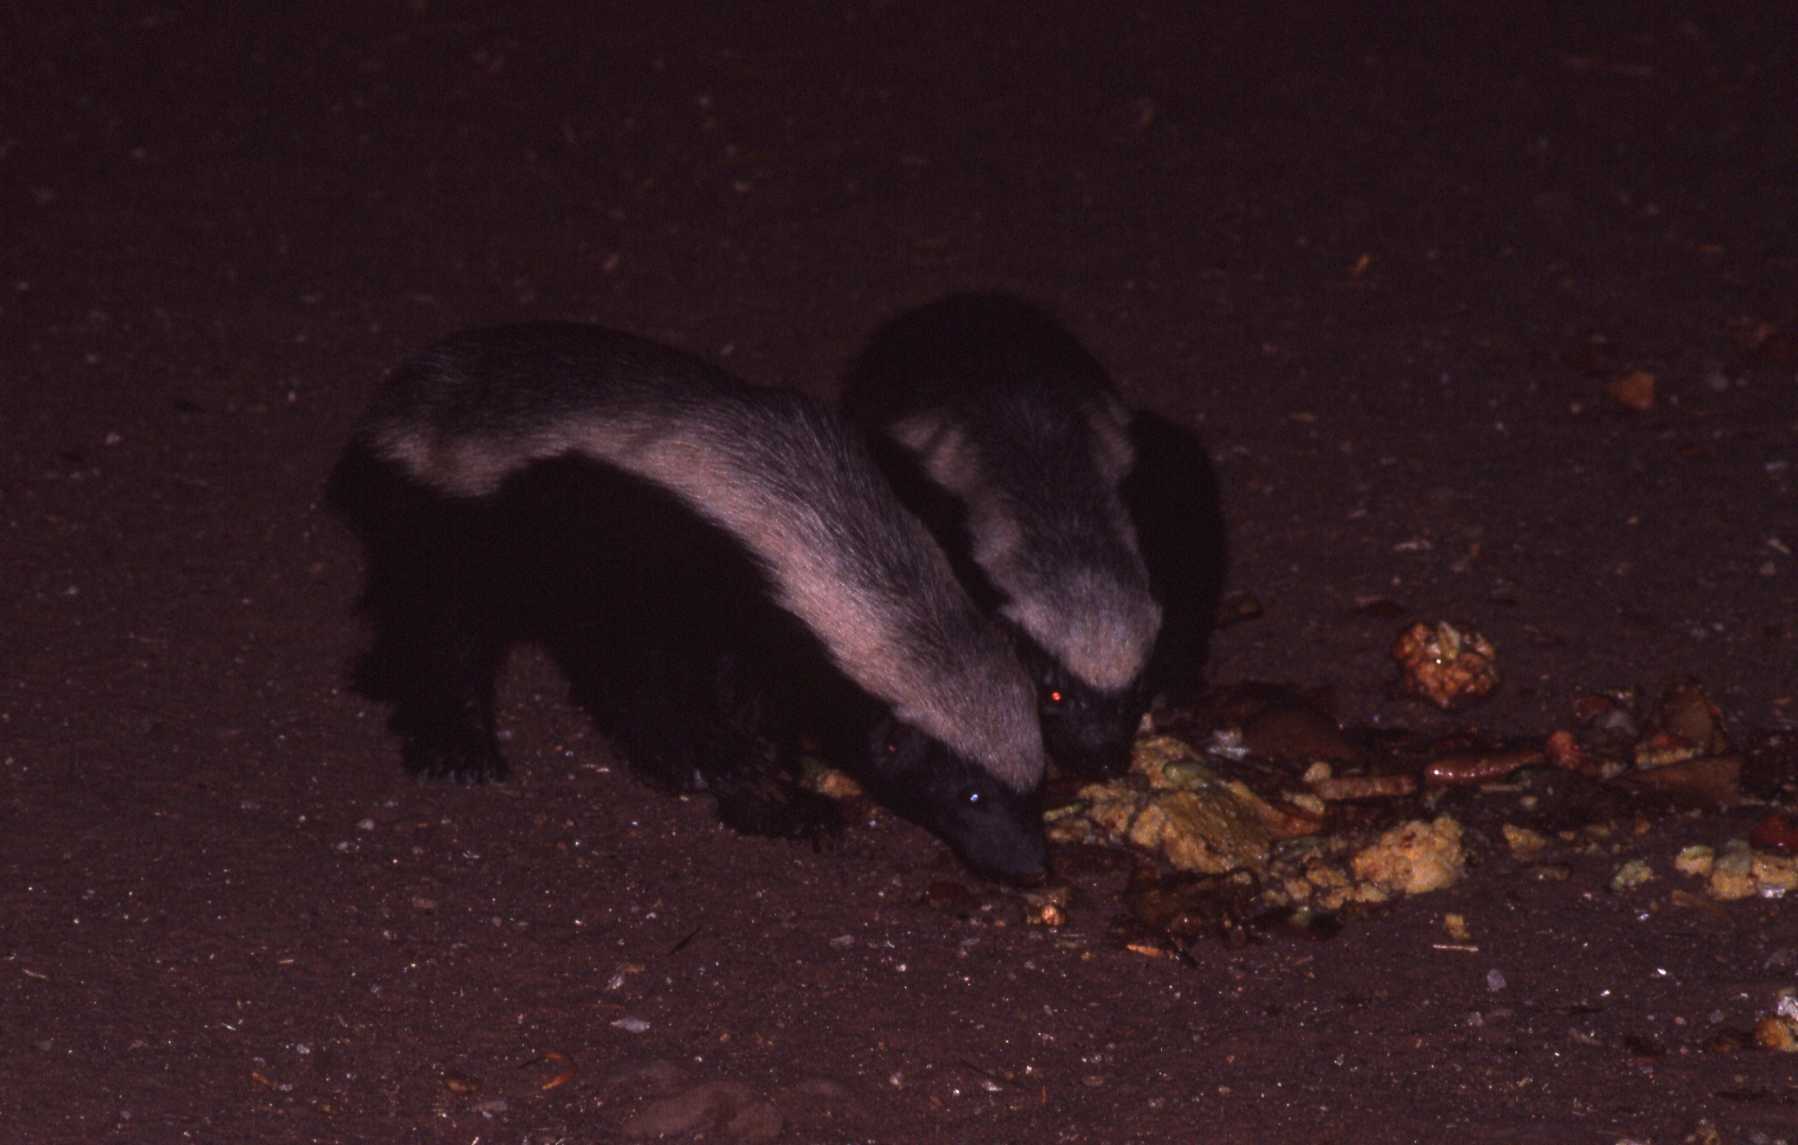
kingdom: Animalia
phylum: Chordata
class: Mammalia
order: Carnivora
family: Mustelidae
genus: Mellivora
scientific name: Mellivora capensis
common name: Honey badger
